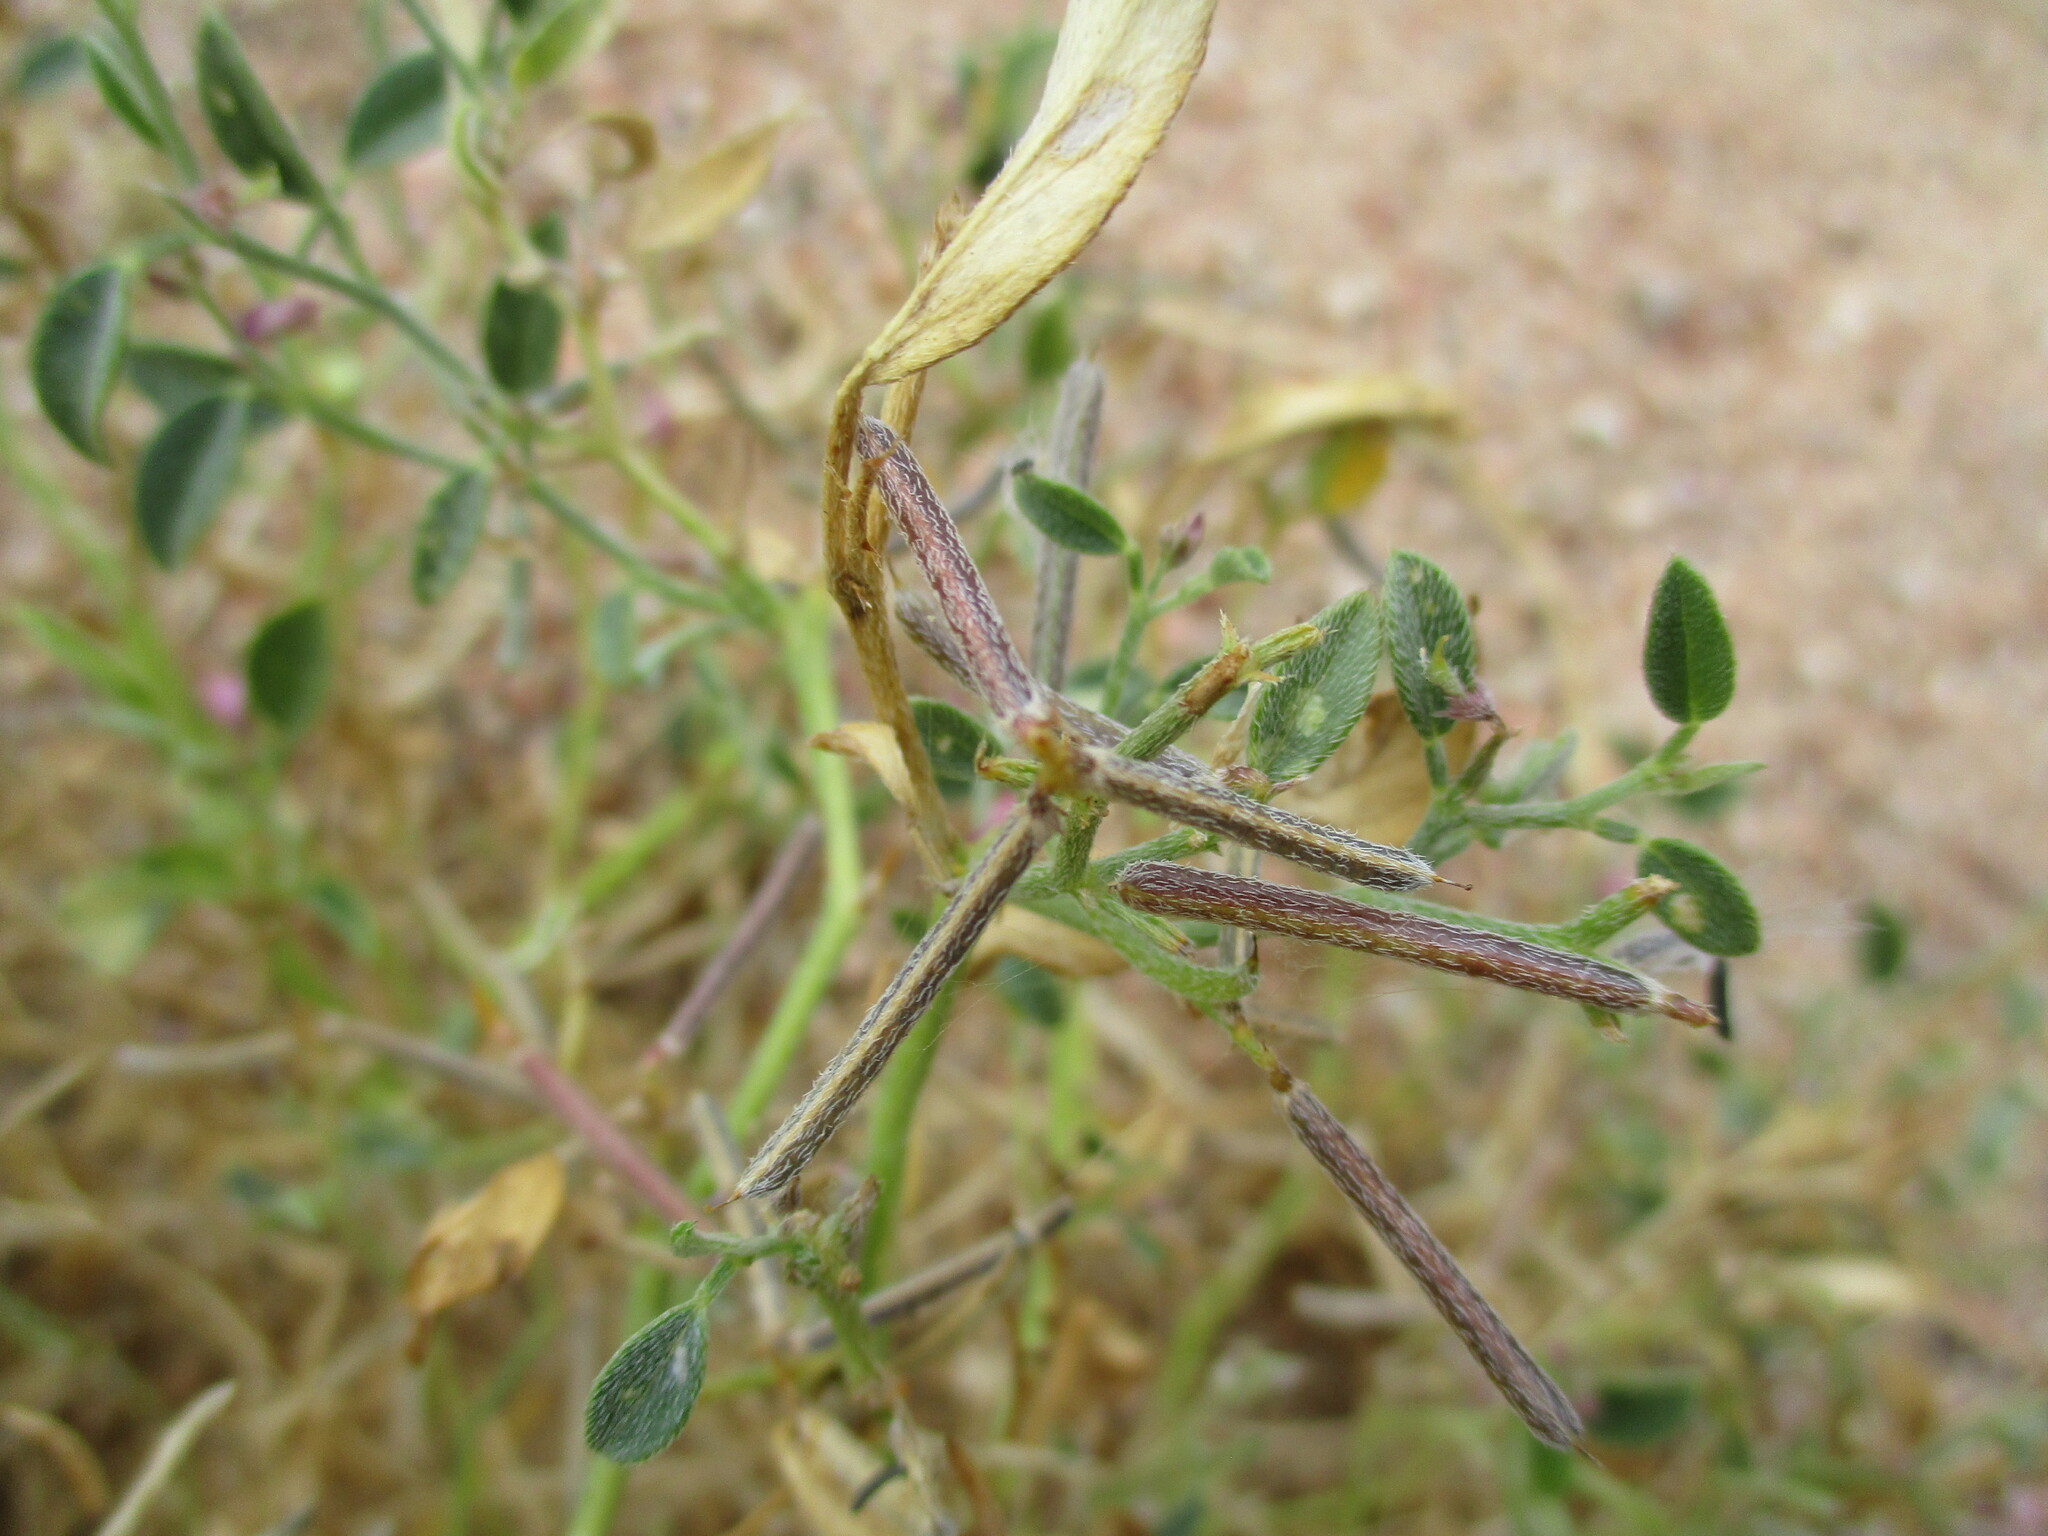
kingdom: Plantae
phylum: Tracheophyta
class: Magnoliopsida
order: Fabales
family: Fabaceae
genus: Tephrosia
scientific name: Tephrosia monophylla
